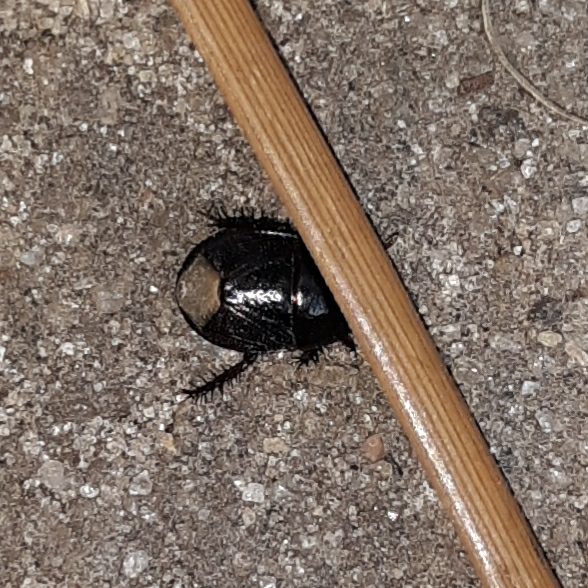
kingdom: Animalia
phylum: Arthropoda
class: Insecta
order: Hemiptera
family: Cydnidae
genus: Pangaeus
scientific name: Pangaeus bilineatus
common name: Burrower bug
